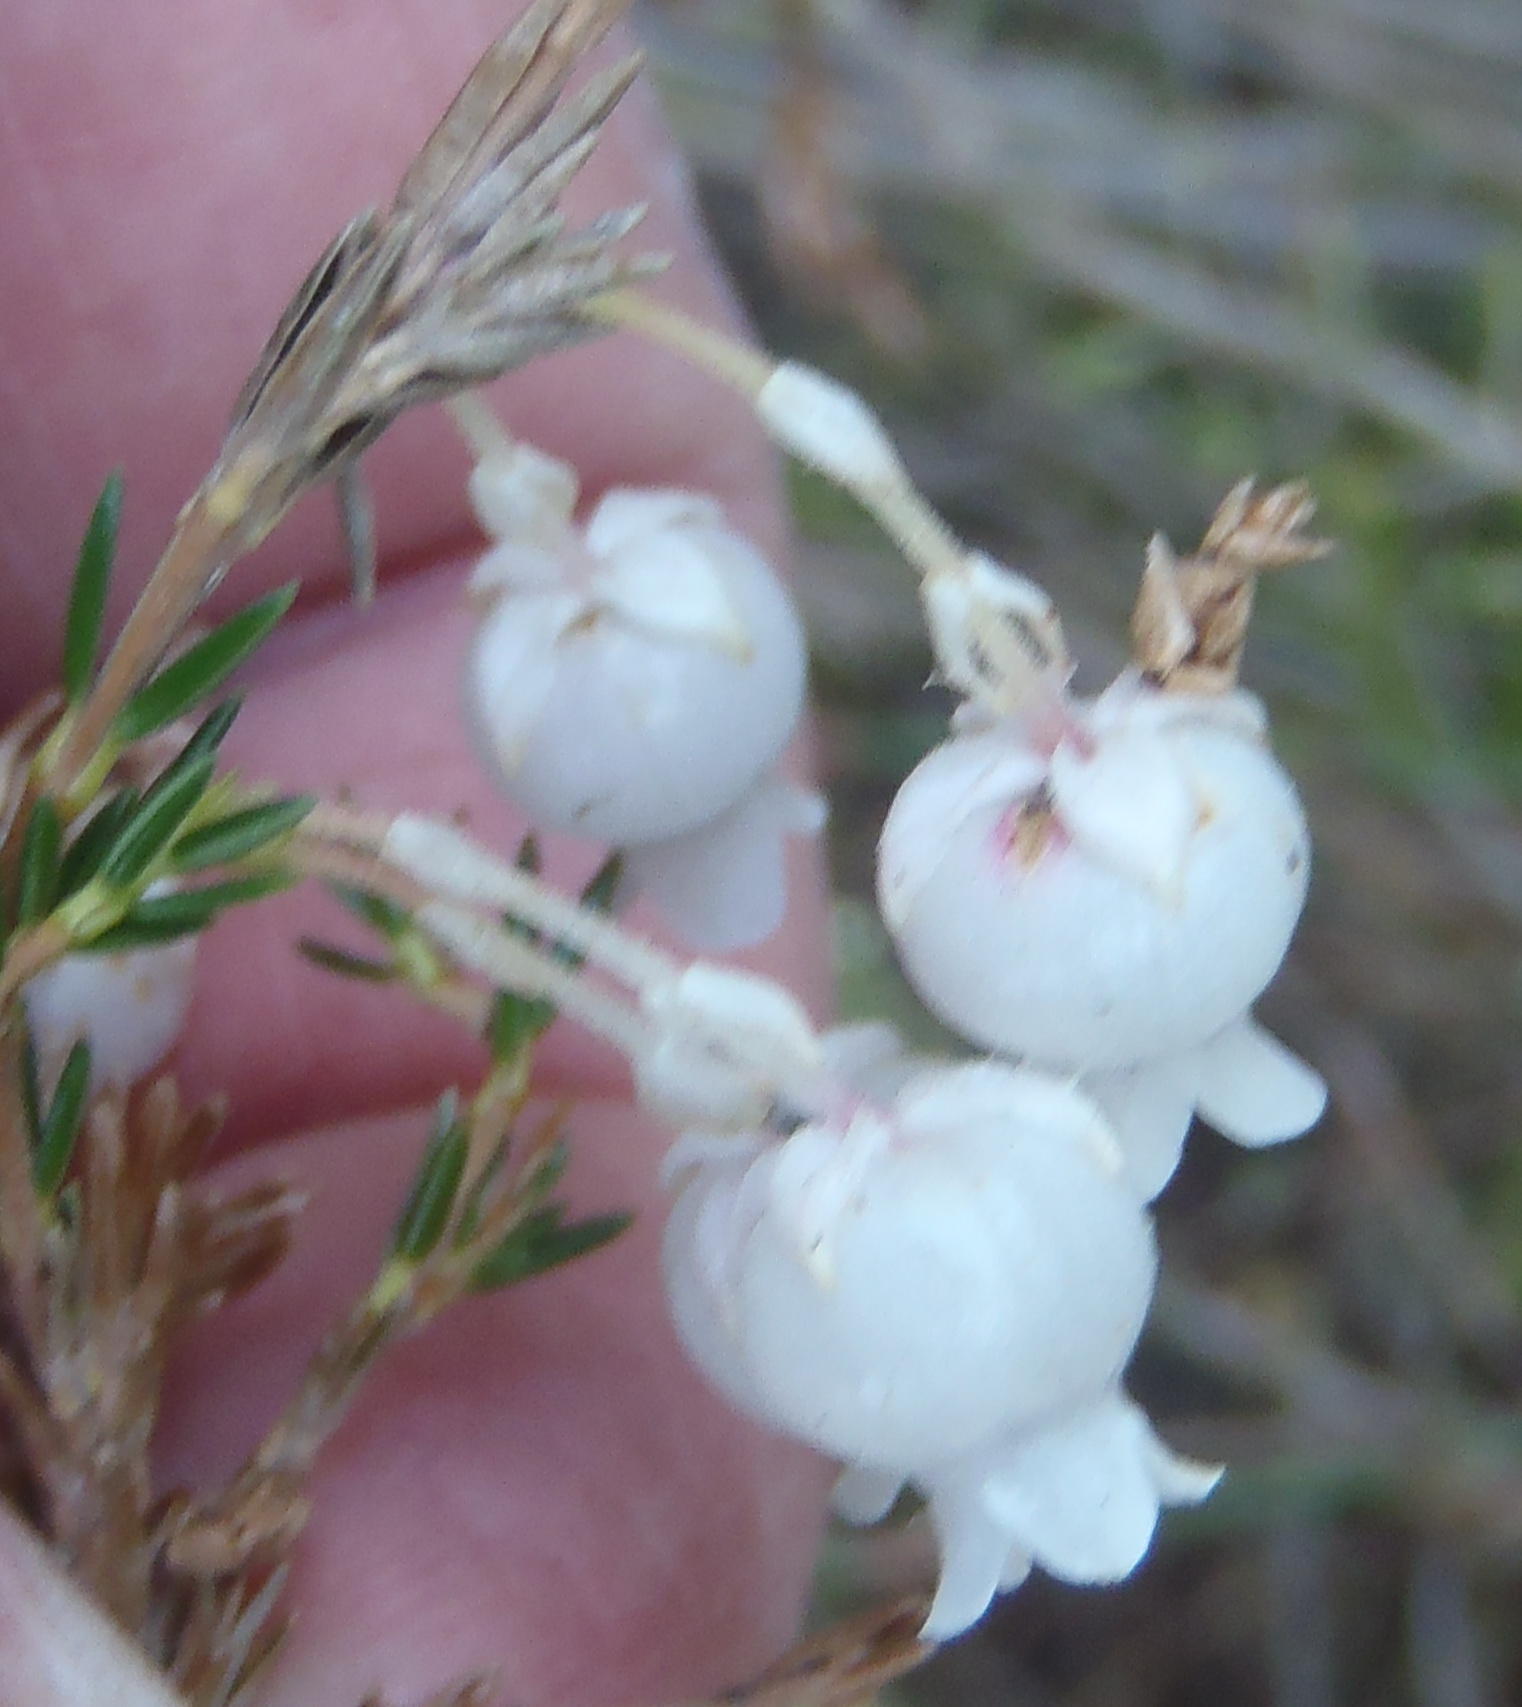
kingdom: Plantae
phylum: Tracheophyta
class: Magnoliopsida
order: Ericales
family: Ericaceae
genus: Erica
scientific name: Erica physodes
